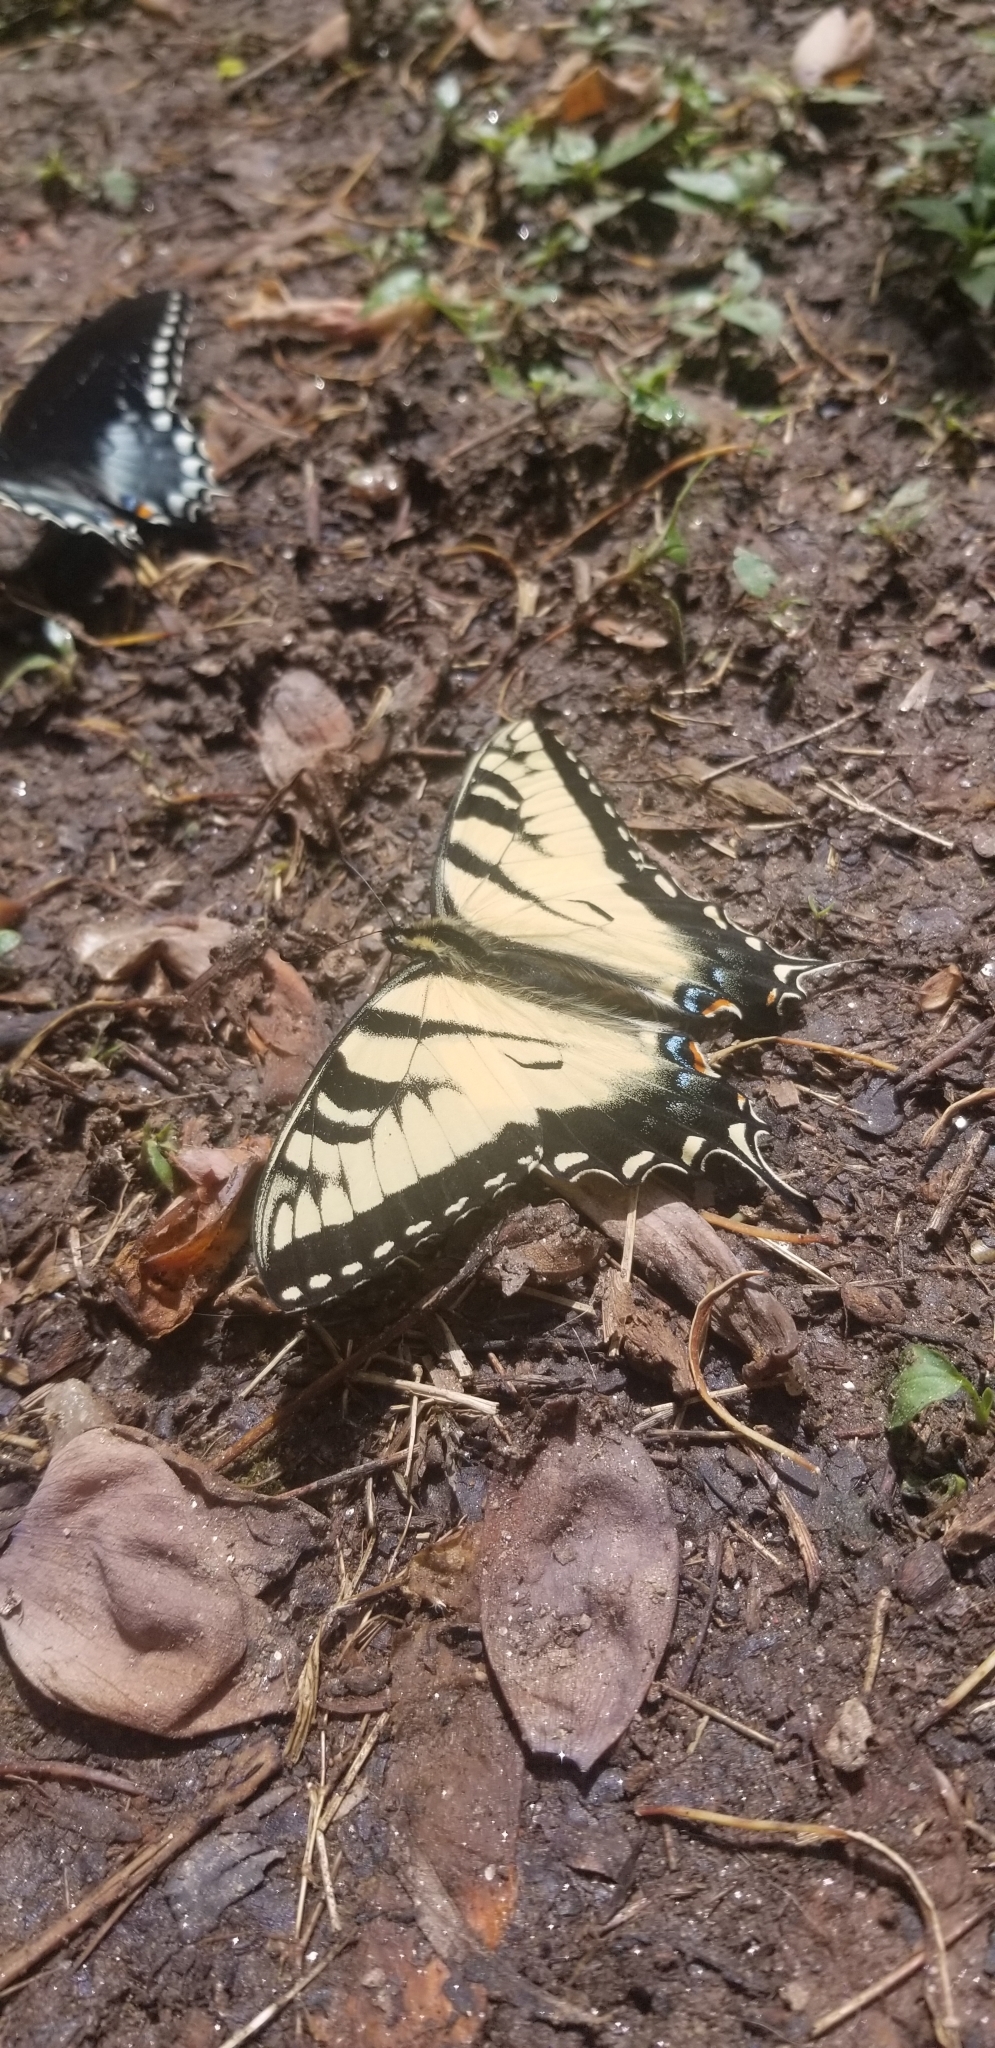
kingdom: Animalia
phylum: Arthropoda
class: Insecta
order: Lepidoptera
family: Papilionidae
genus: Papilio
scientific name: Papilio glaucus
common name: Tiger swallowtail
